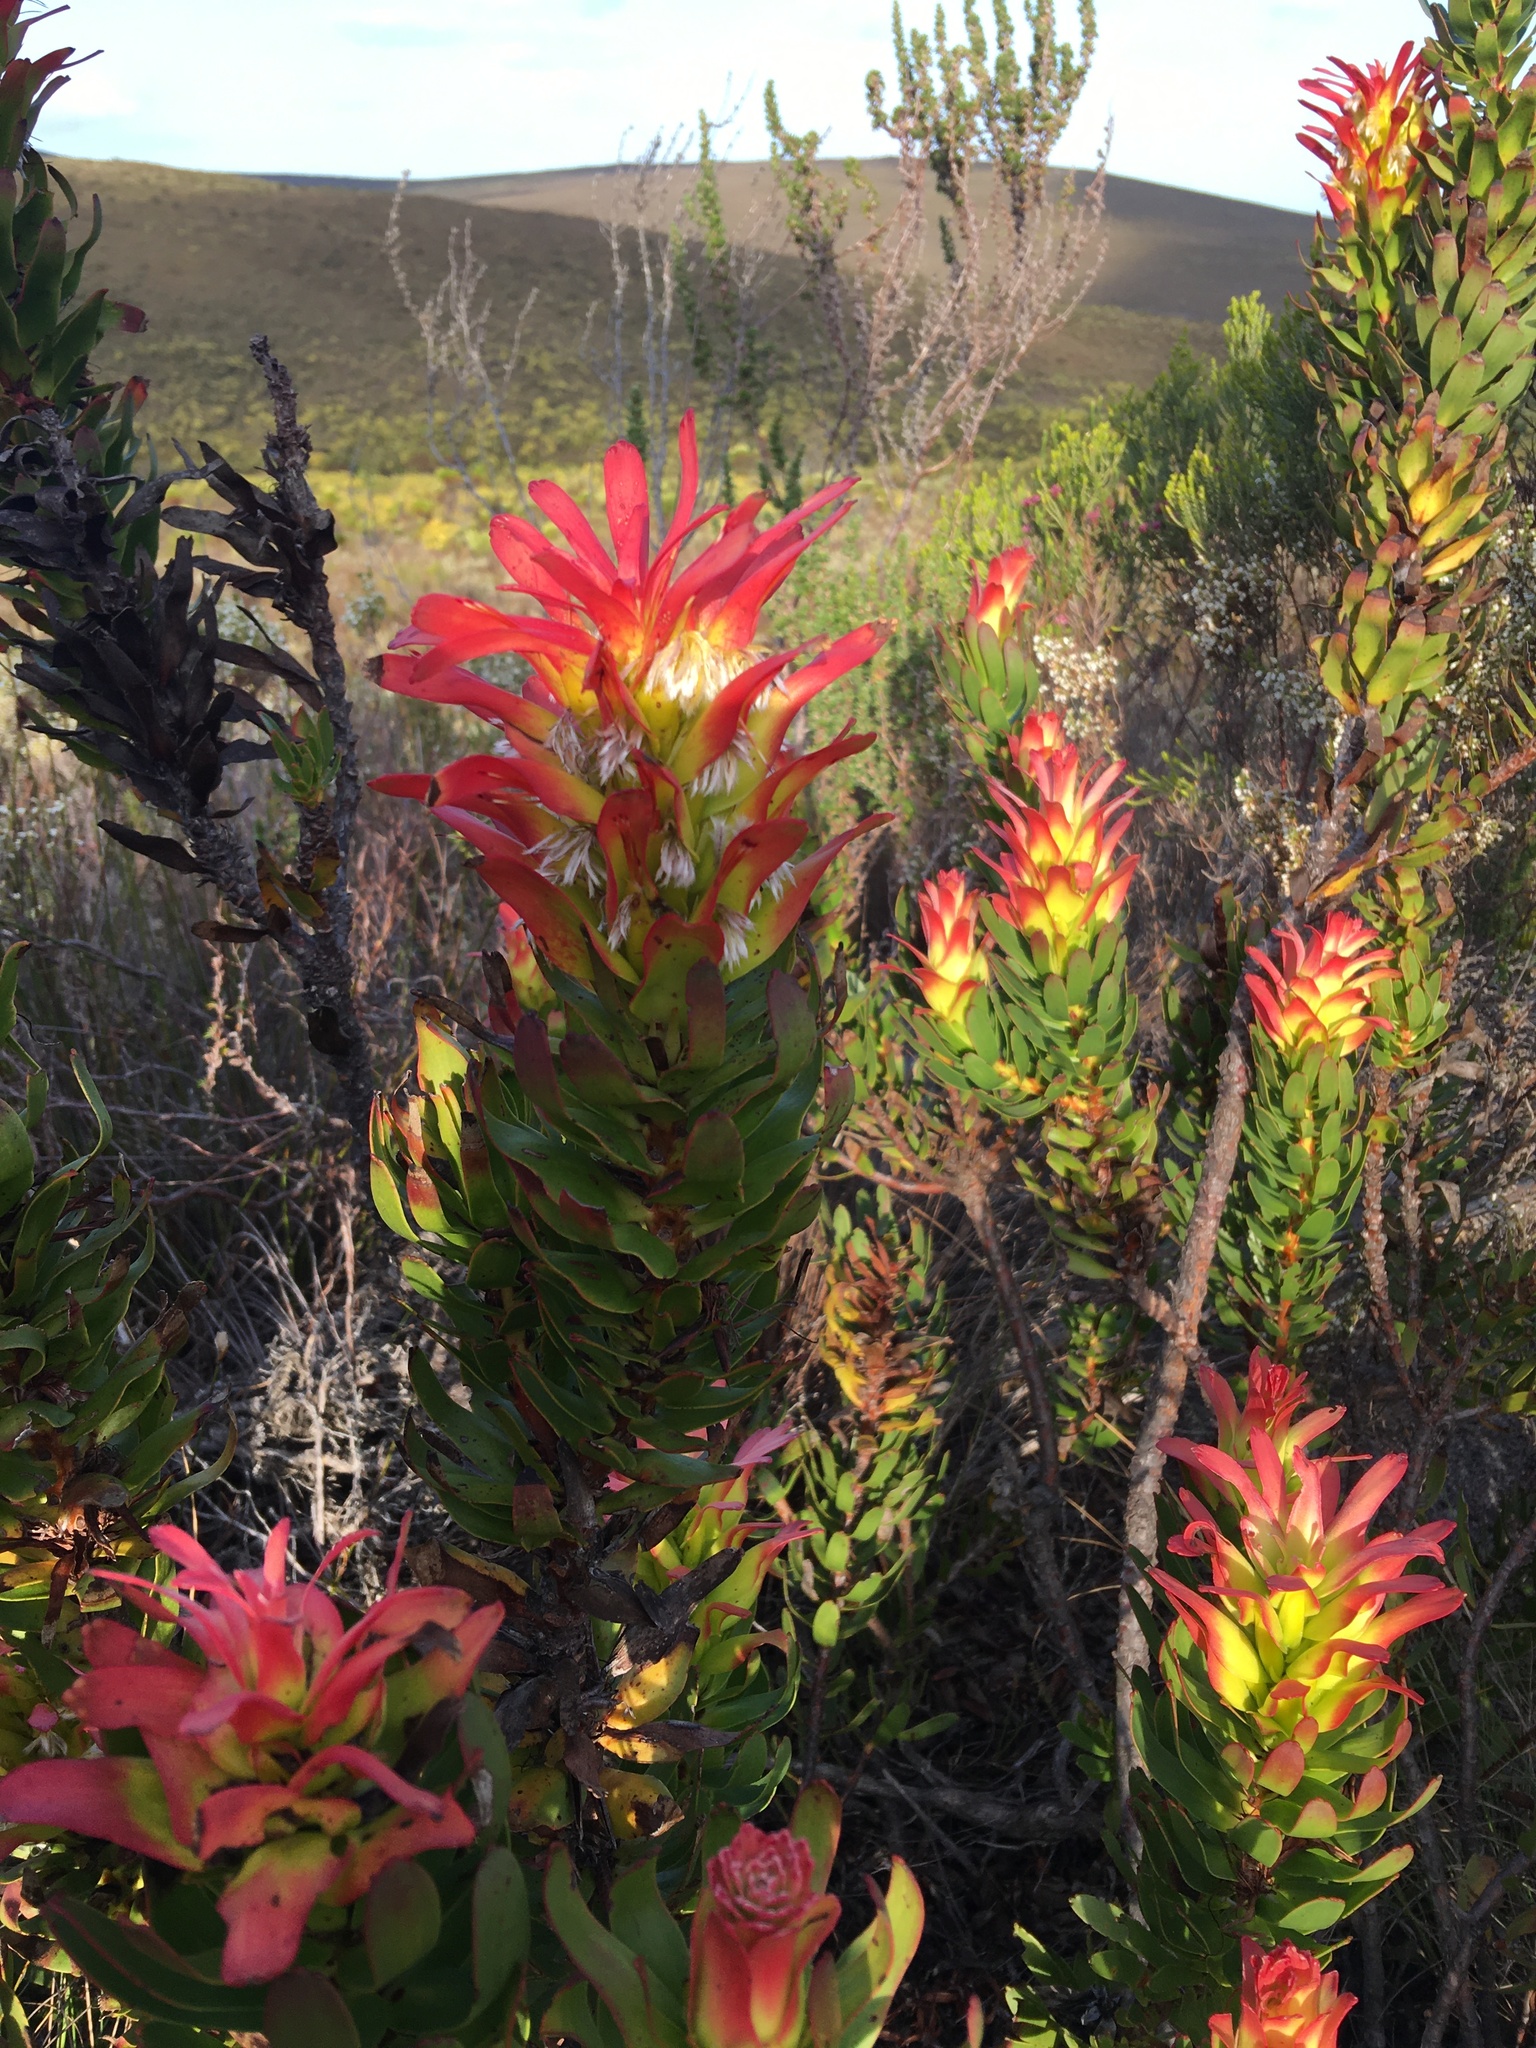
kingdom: Plantae
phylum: Tracheophyta
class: Magnoliopsida
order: Proteales
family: Proteaceae
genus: Mimetes
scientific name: Mimetes cucullatus
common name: Common pagoda
